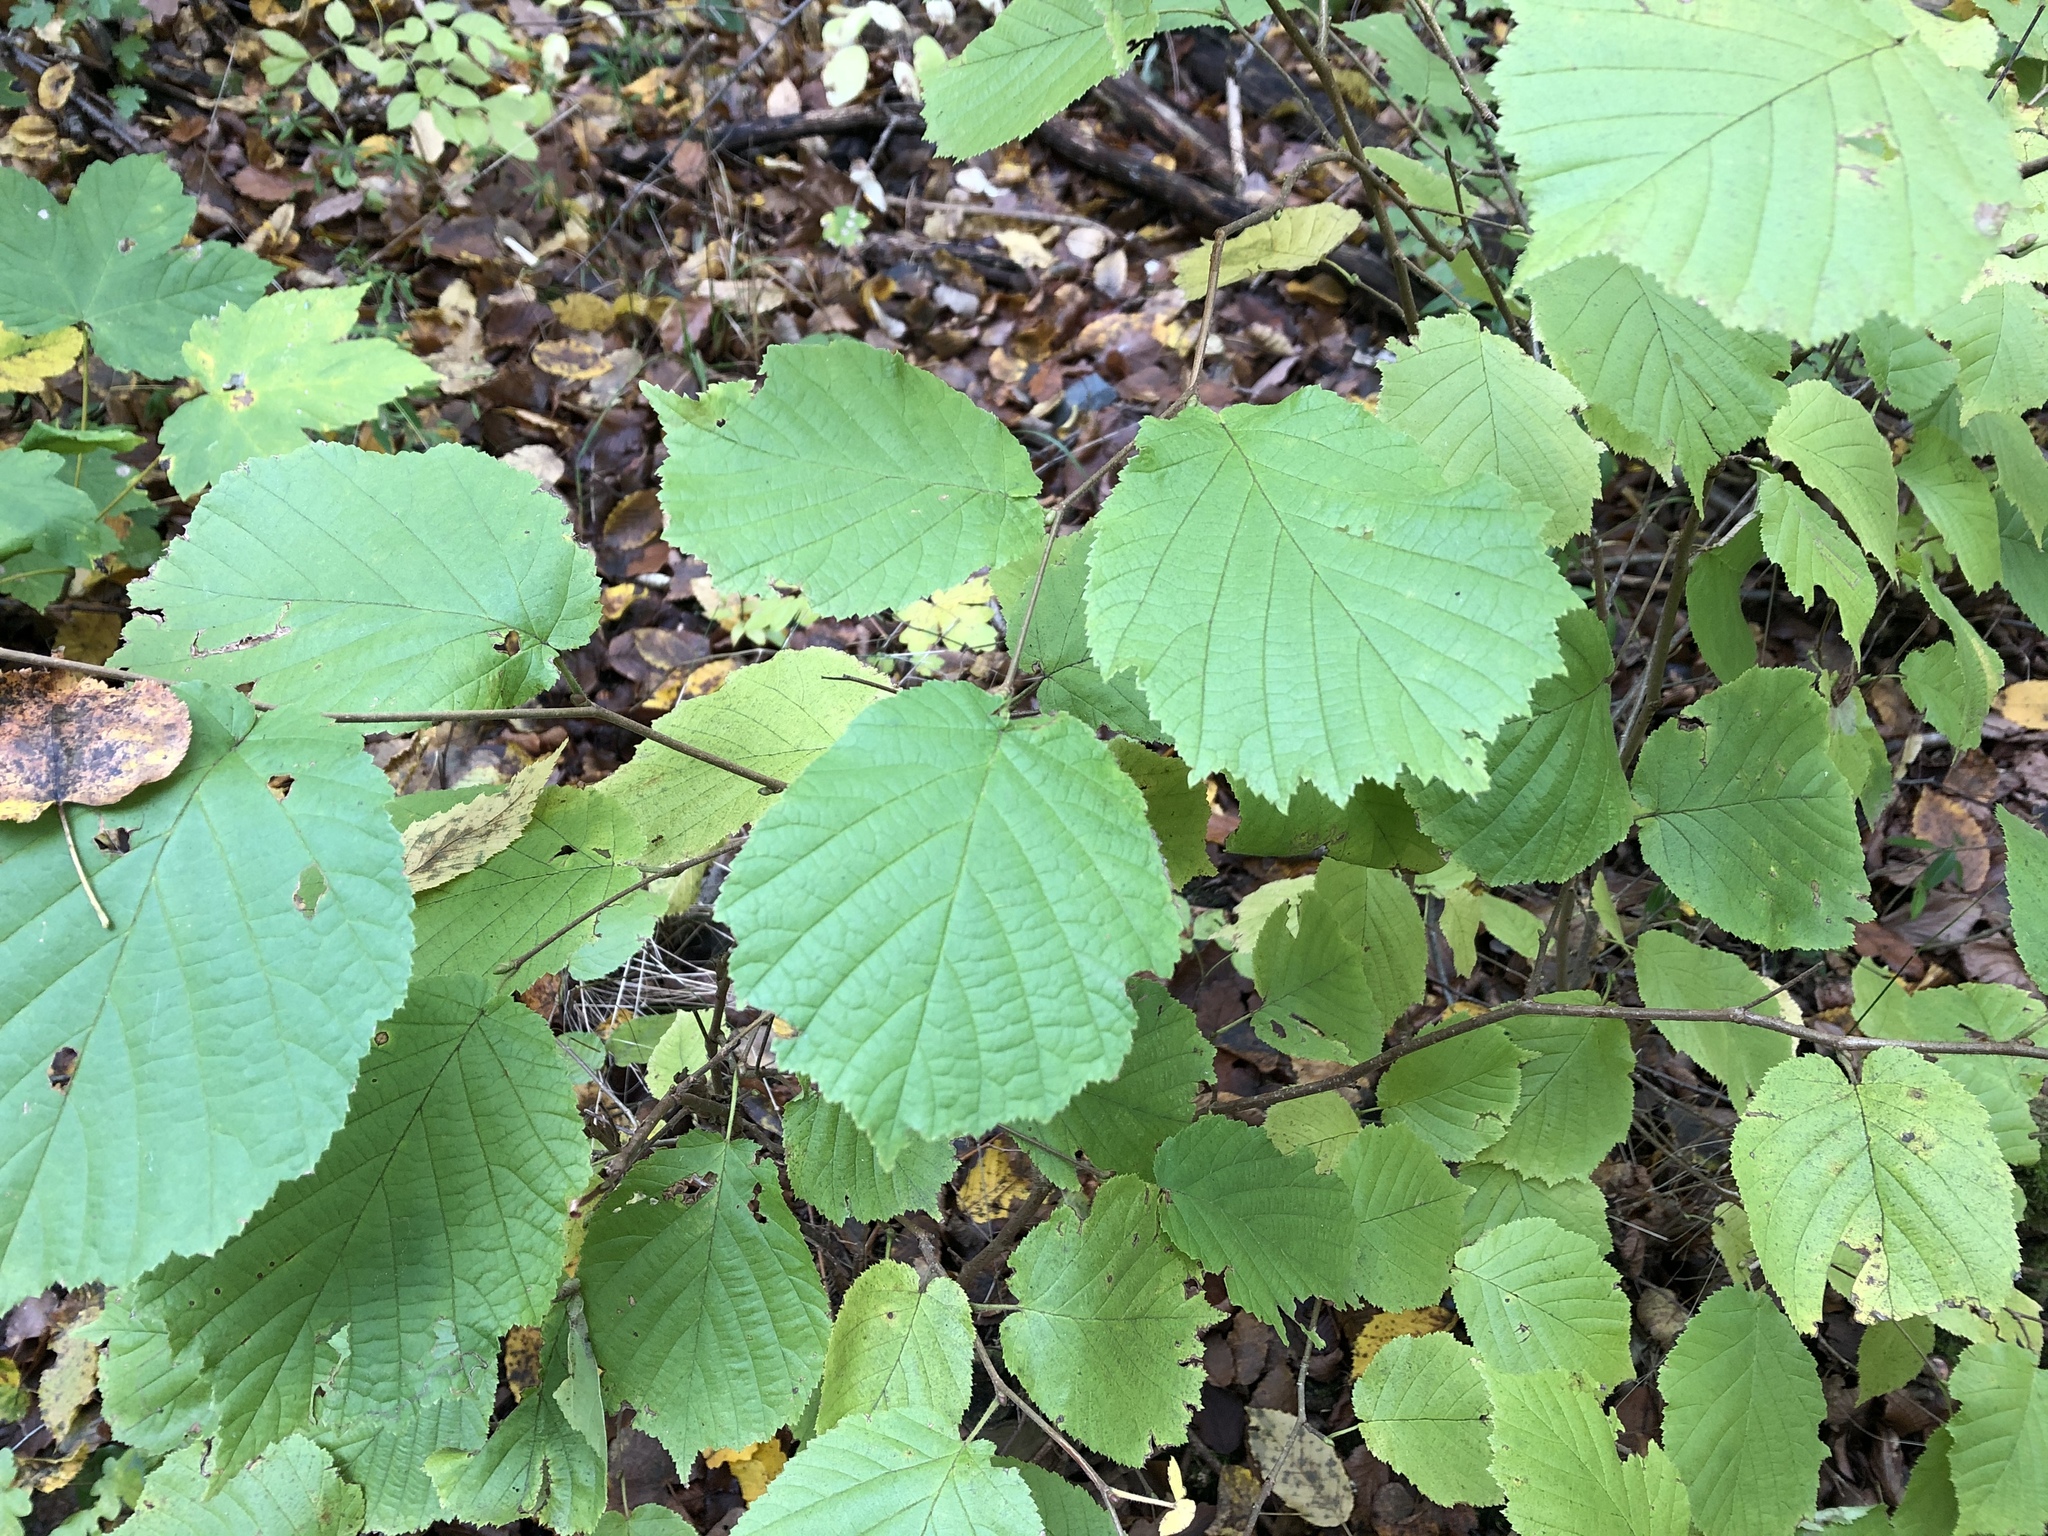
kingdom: Plantae
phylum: Tracheophyta
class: Magnoliopsida
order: Fagales
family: Betulaceae
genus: Corylus
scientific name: Corylus avellana
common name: European hazel
